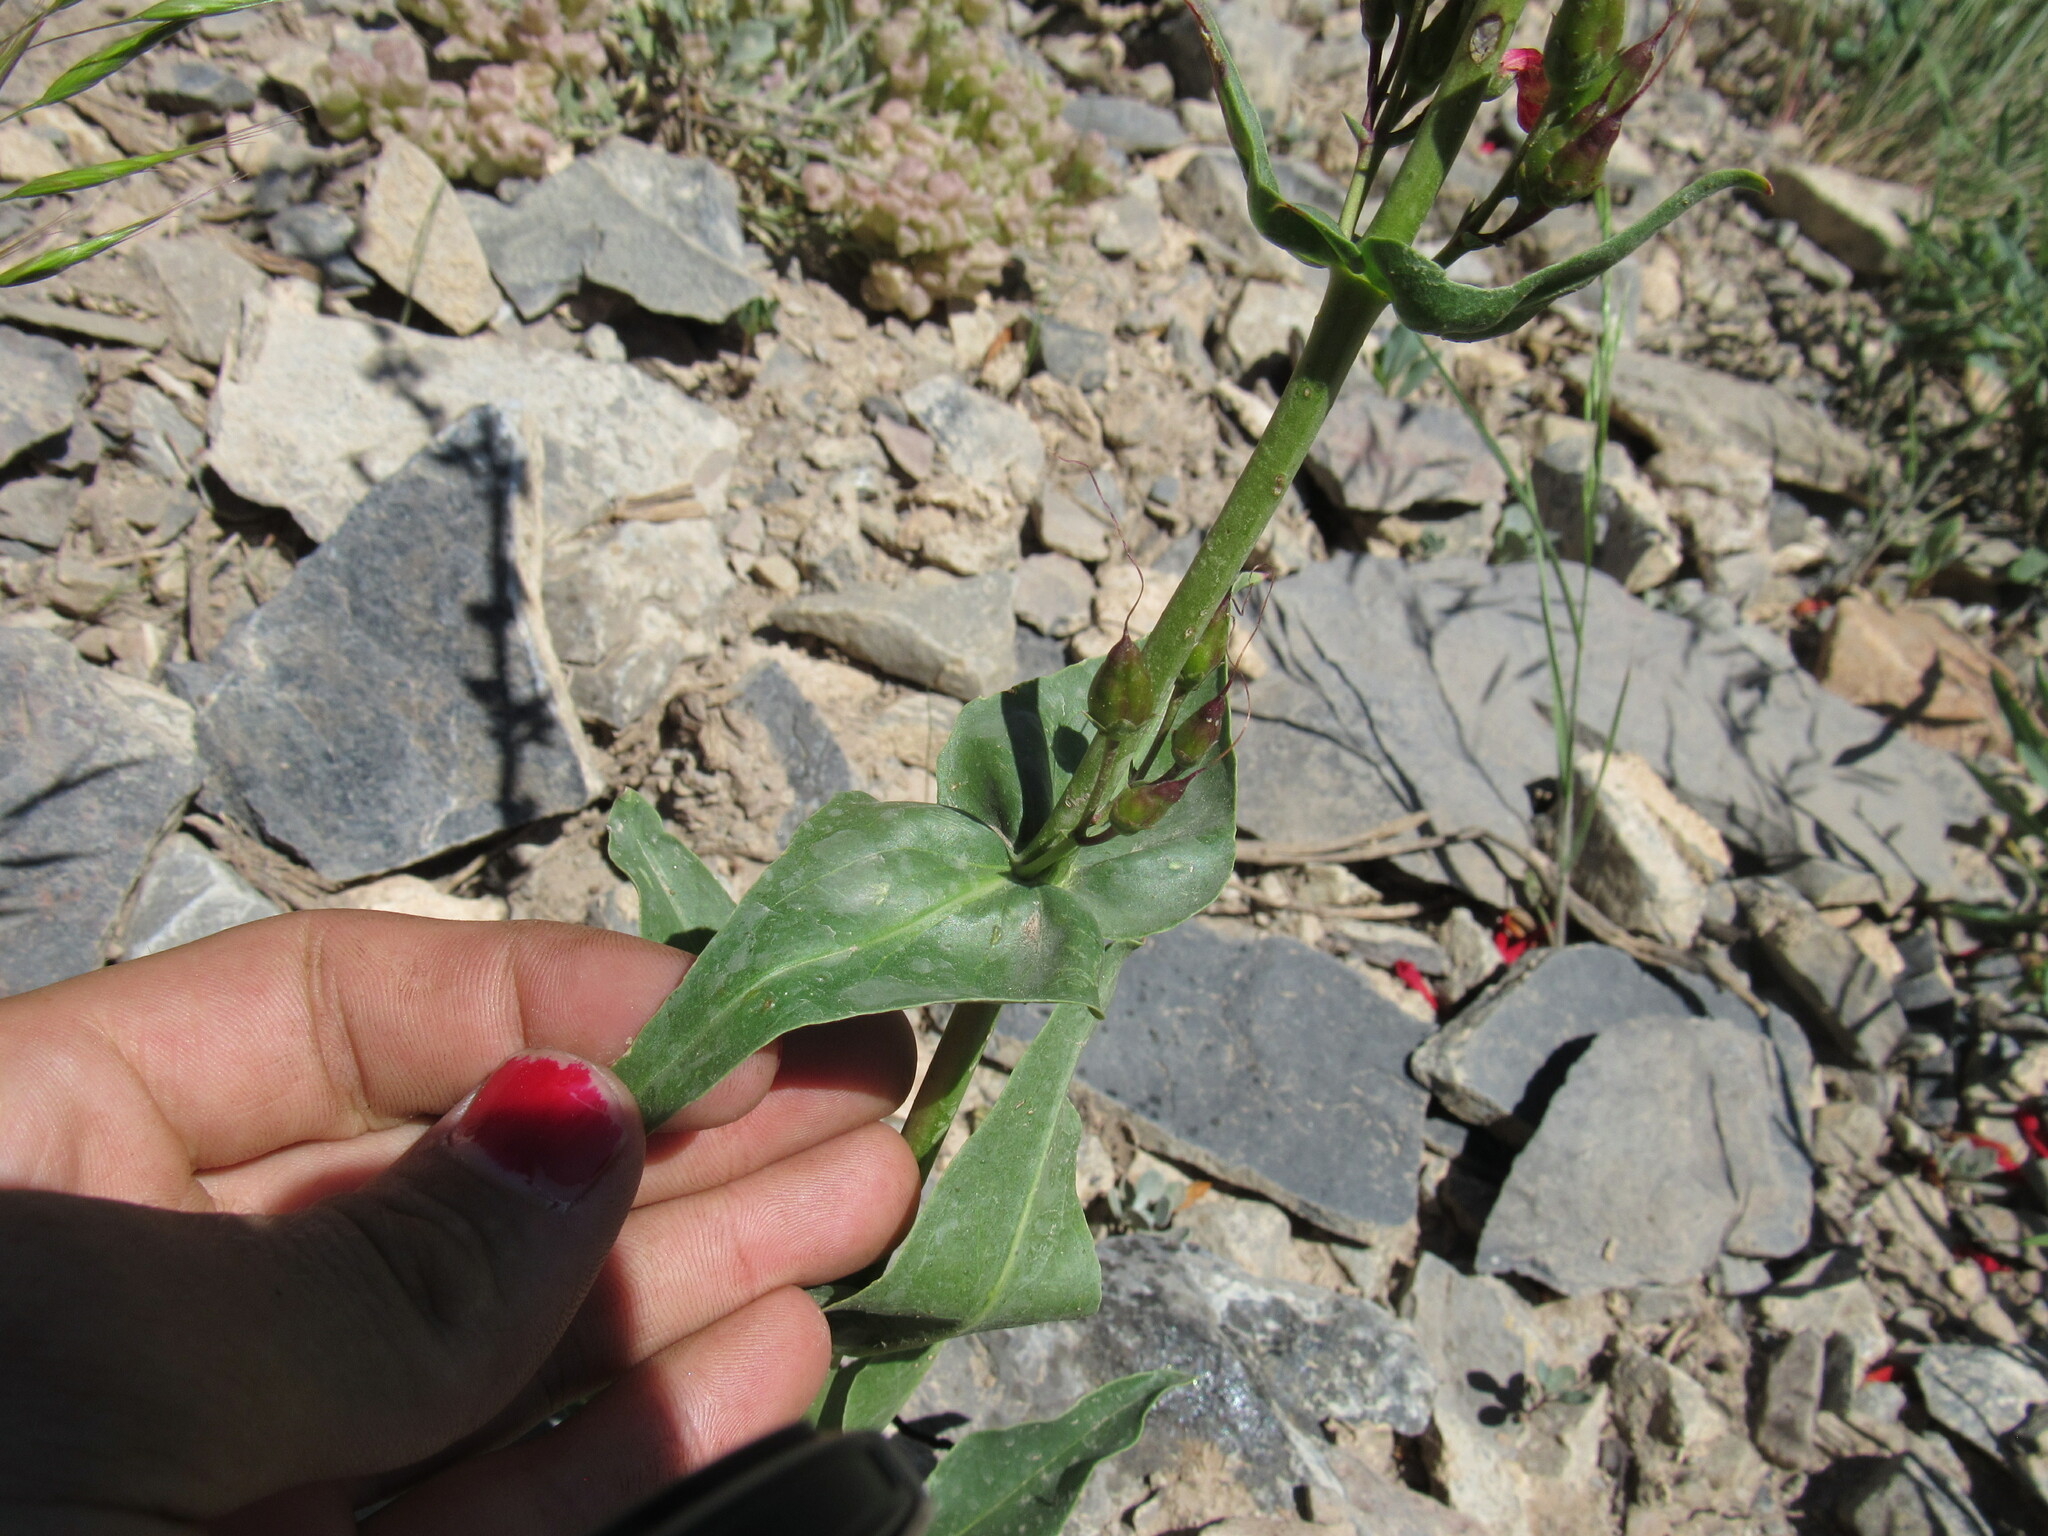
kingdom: Plantae
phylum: Tracheophyta
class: Magnoliopsida
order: Lamiales
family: Plantaginaceae
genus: Penstemon
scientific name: Penstemon eatonii
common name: Eaton's penstemon
